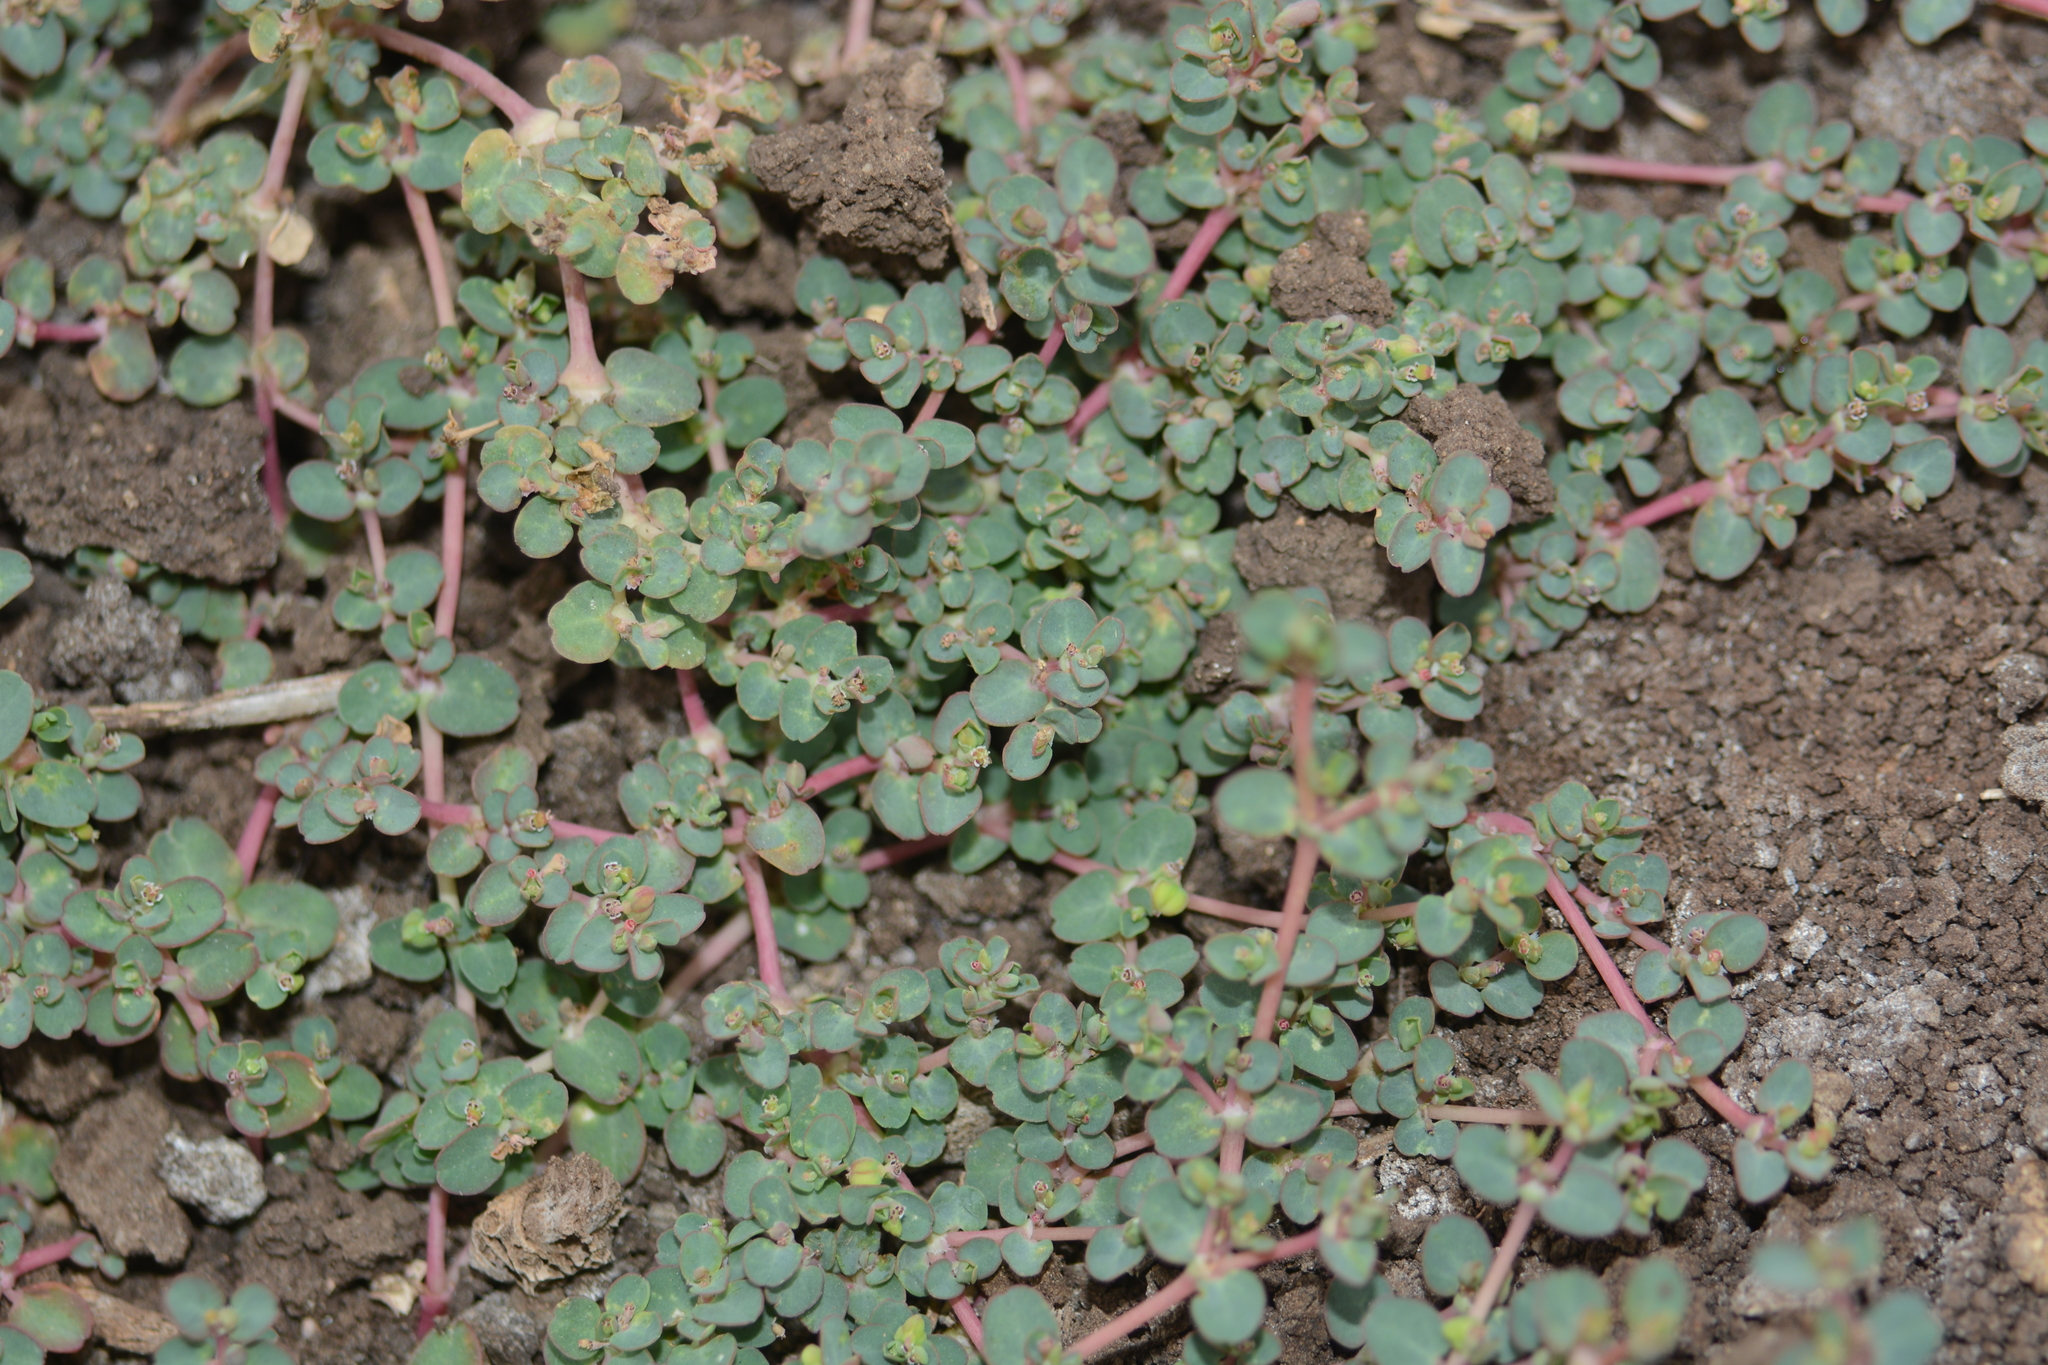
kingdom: Plantae
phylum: Tracheophyta
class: Magnoliopsida
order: Malpighiales
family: Euphorbiaceae
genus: Euphorbia
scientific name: Euphorbia serpens
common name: Matted sandmat
